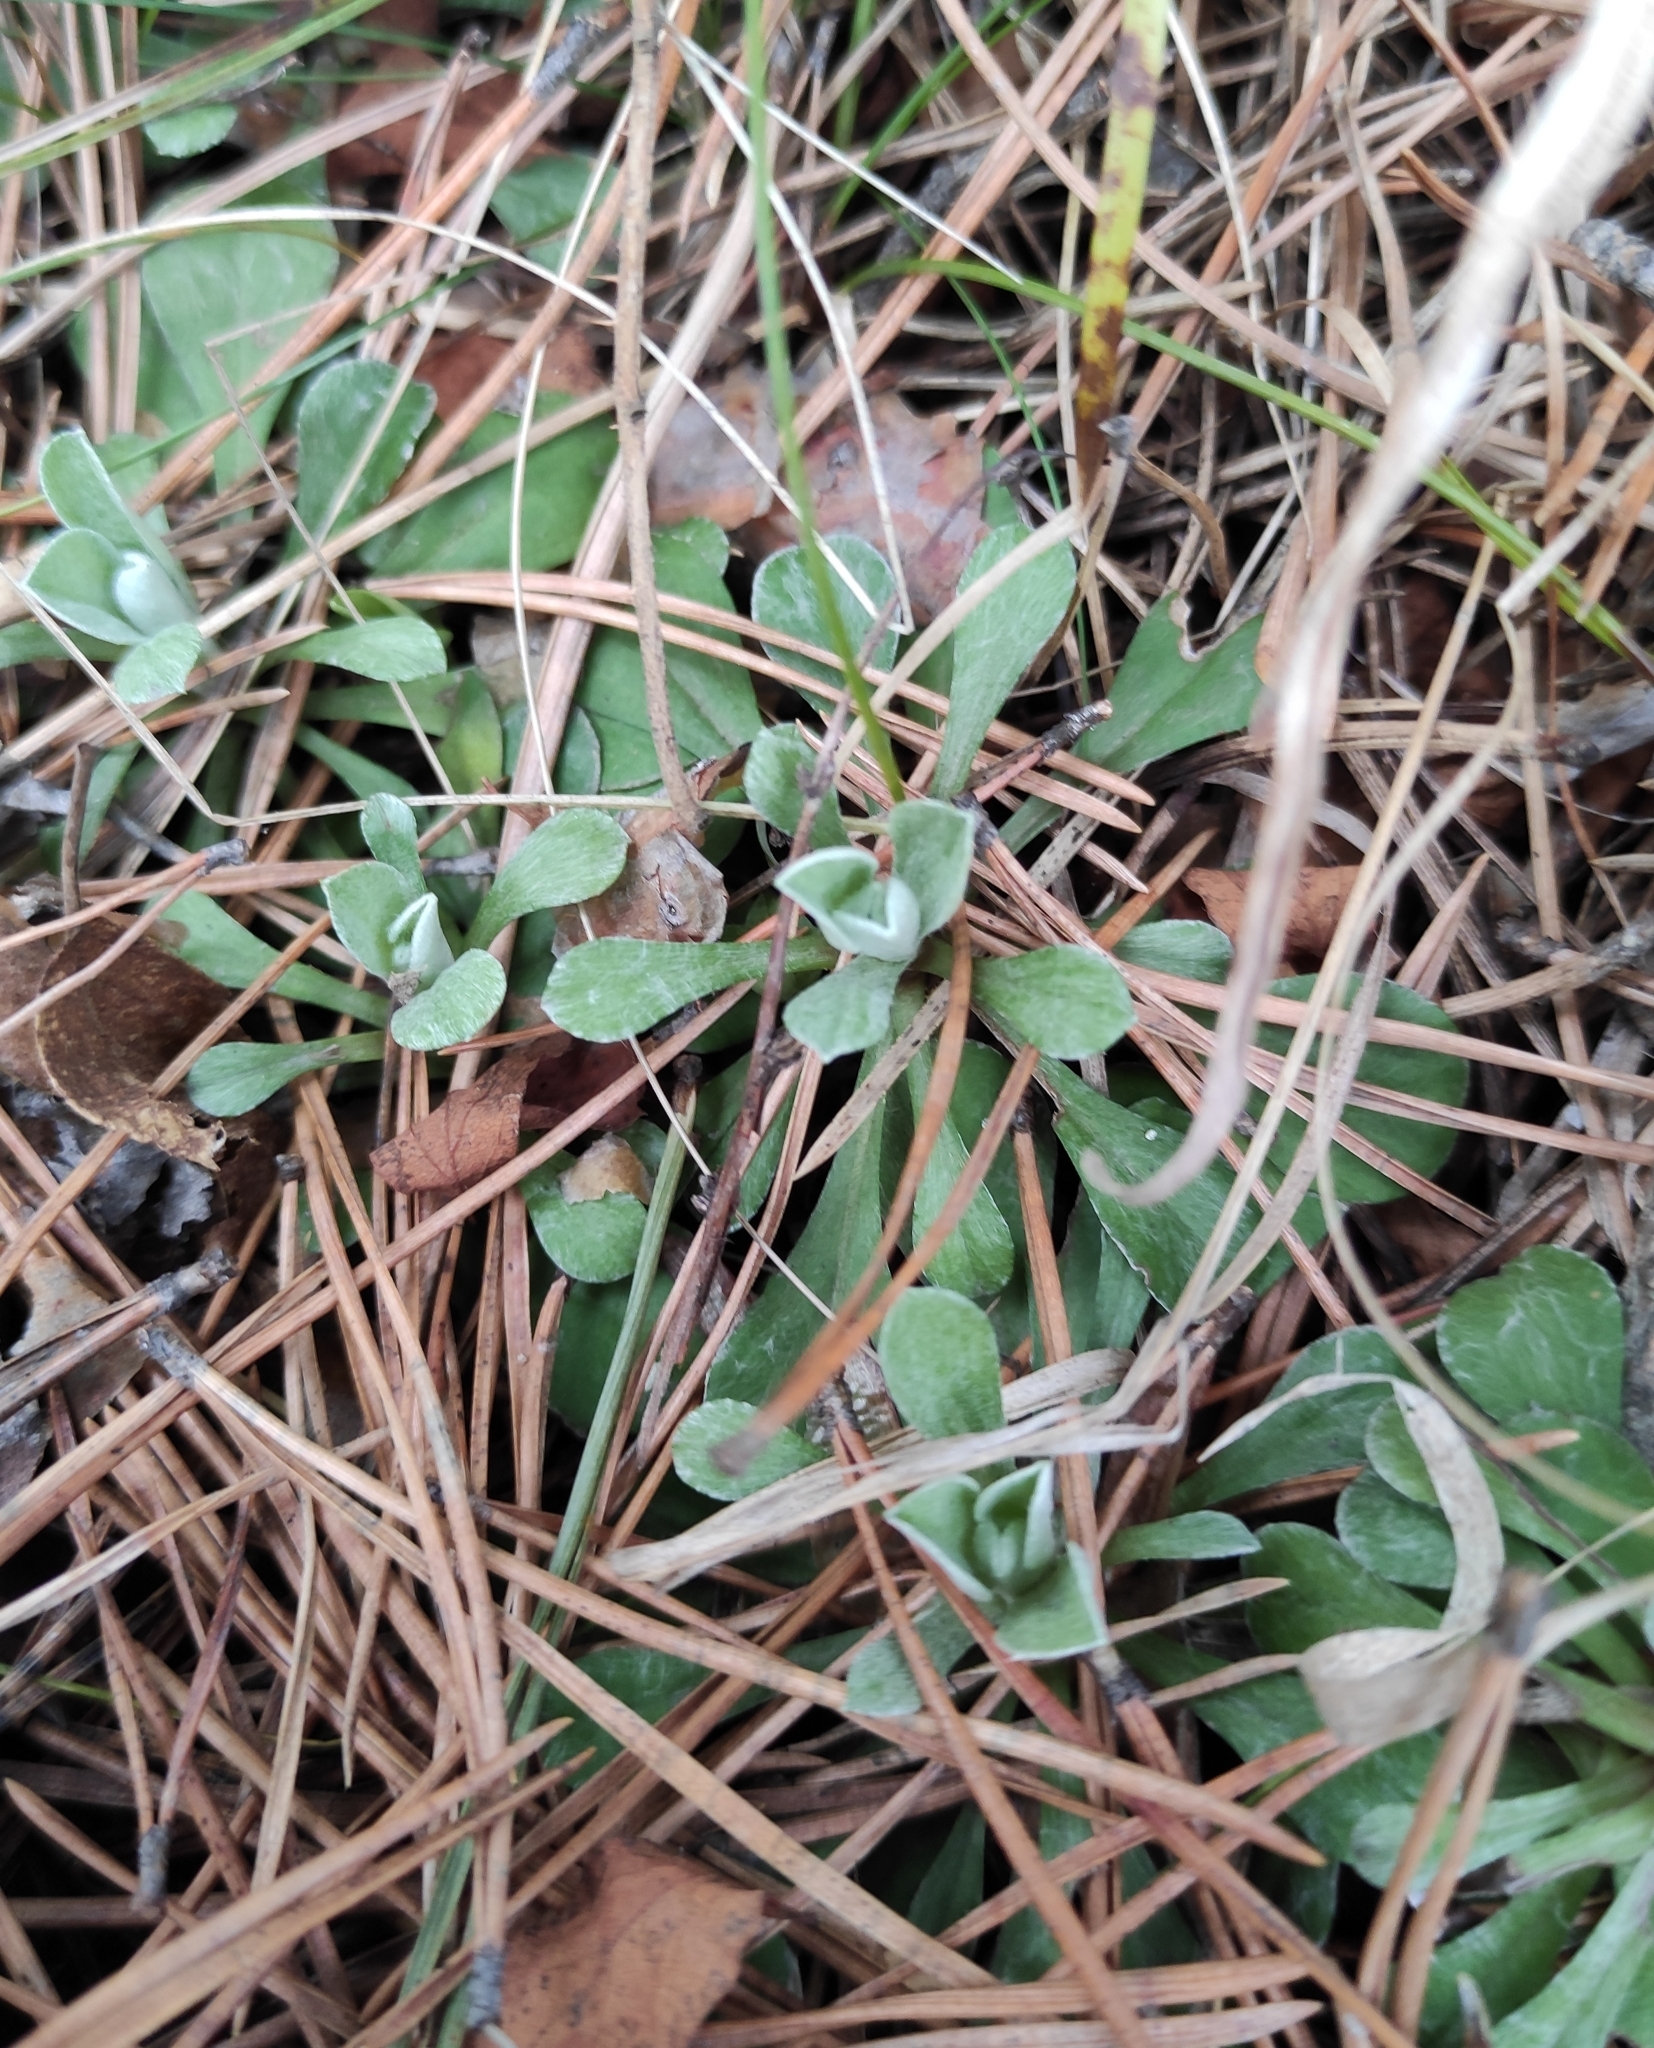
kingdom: Plantae
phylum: Tracheophyta
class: Magnoliopsida
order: Asterales
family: Asteraceae
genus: Antennaria
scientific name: Antennaria dioica
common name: Mountain everlasting
